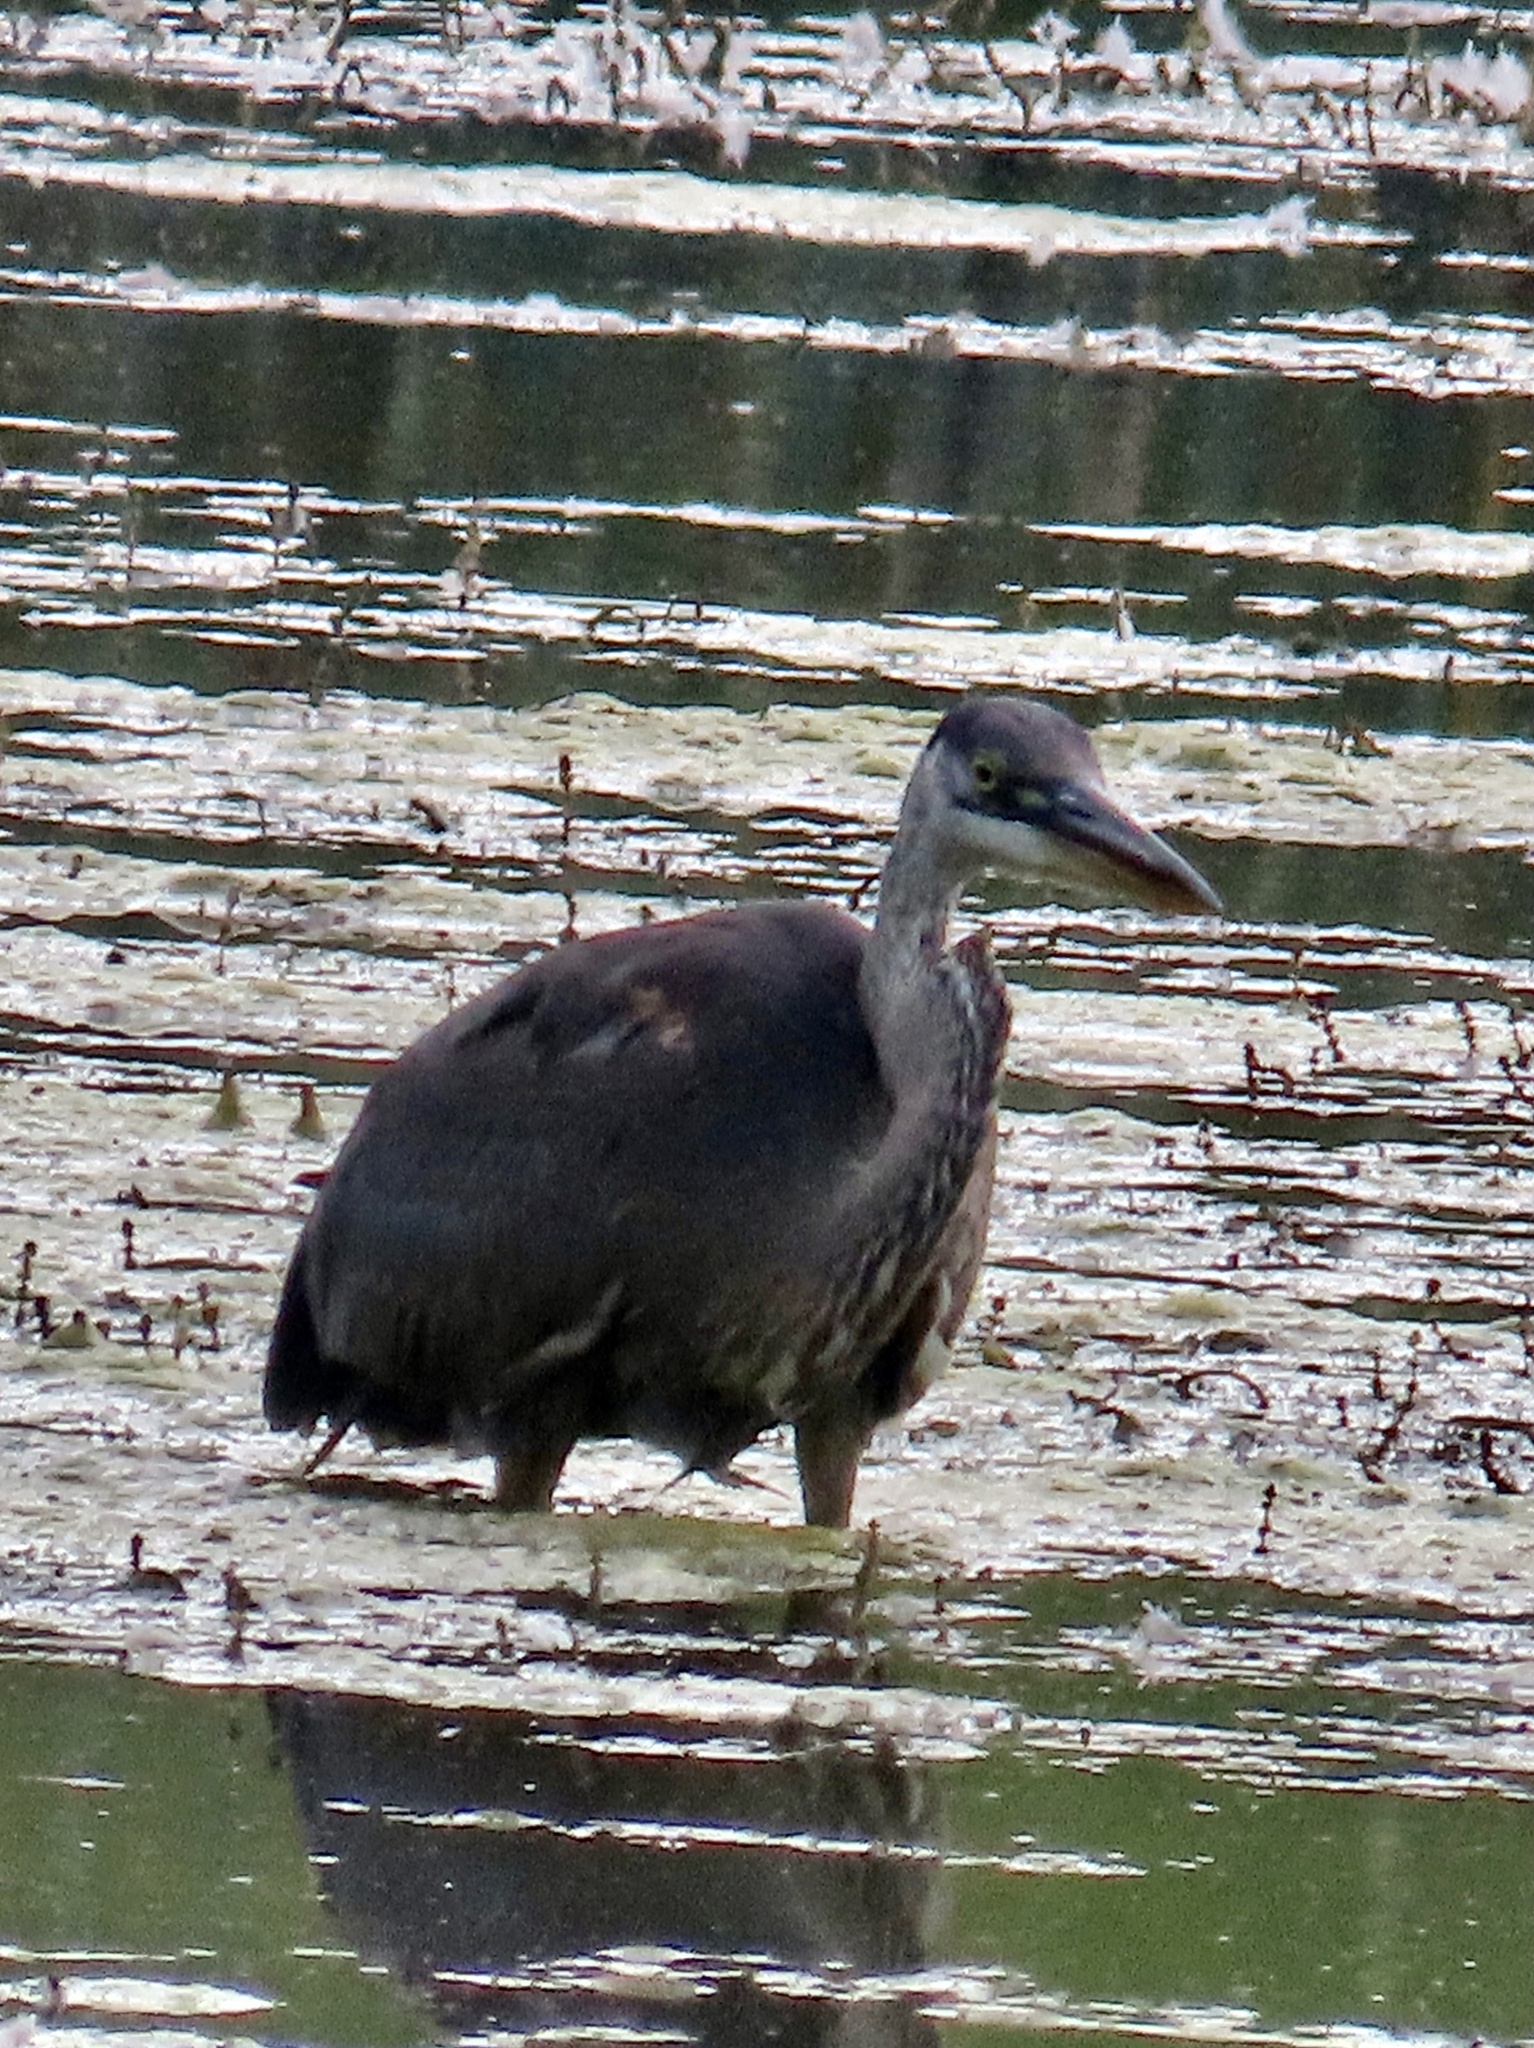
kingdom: Animalia
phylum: Chordata
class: Aves
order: Pelecaniformes
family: Ardeidae
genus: Ardea
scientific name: Ardea herodias
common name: Great blue heron
